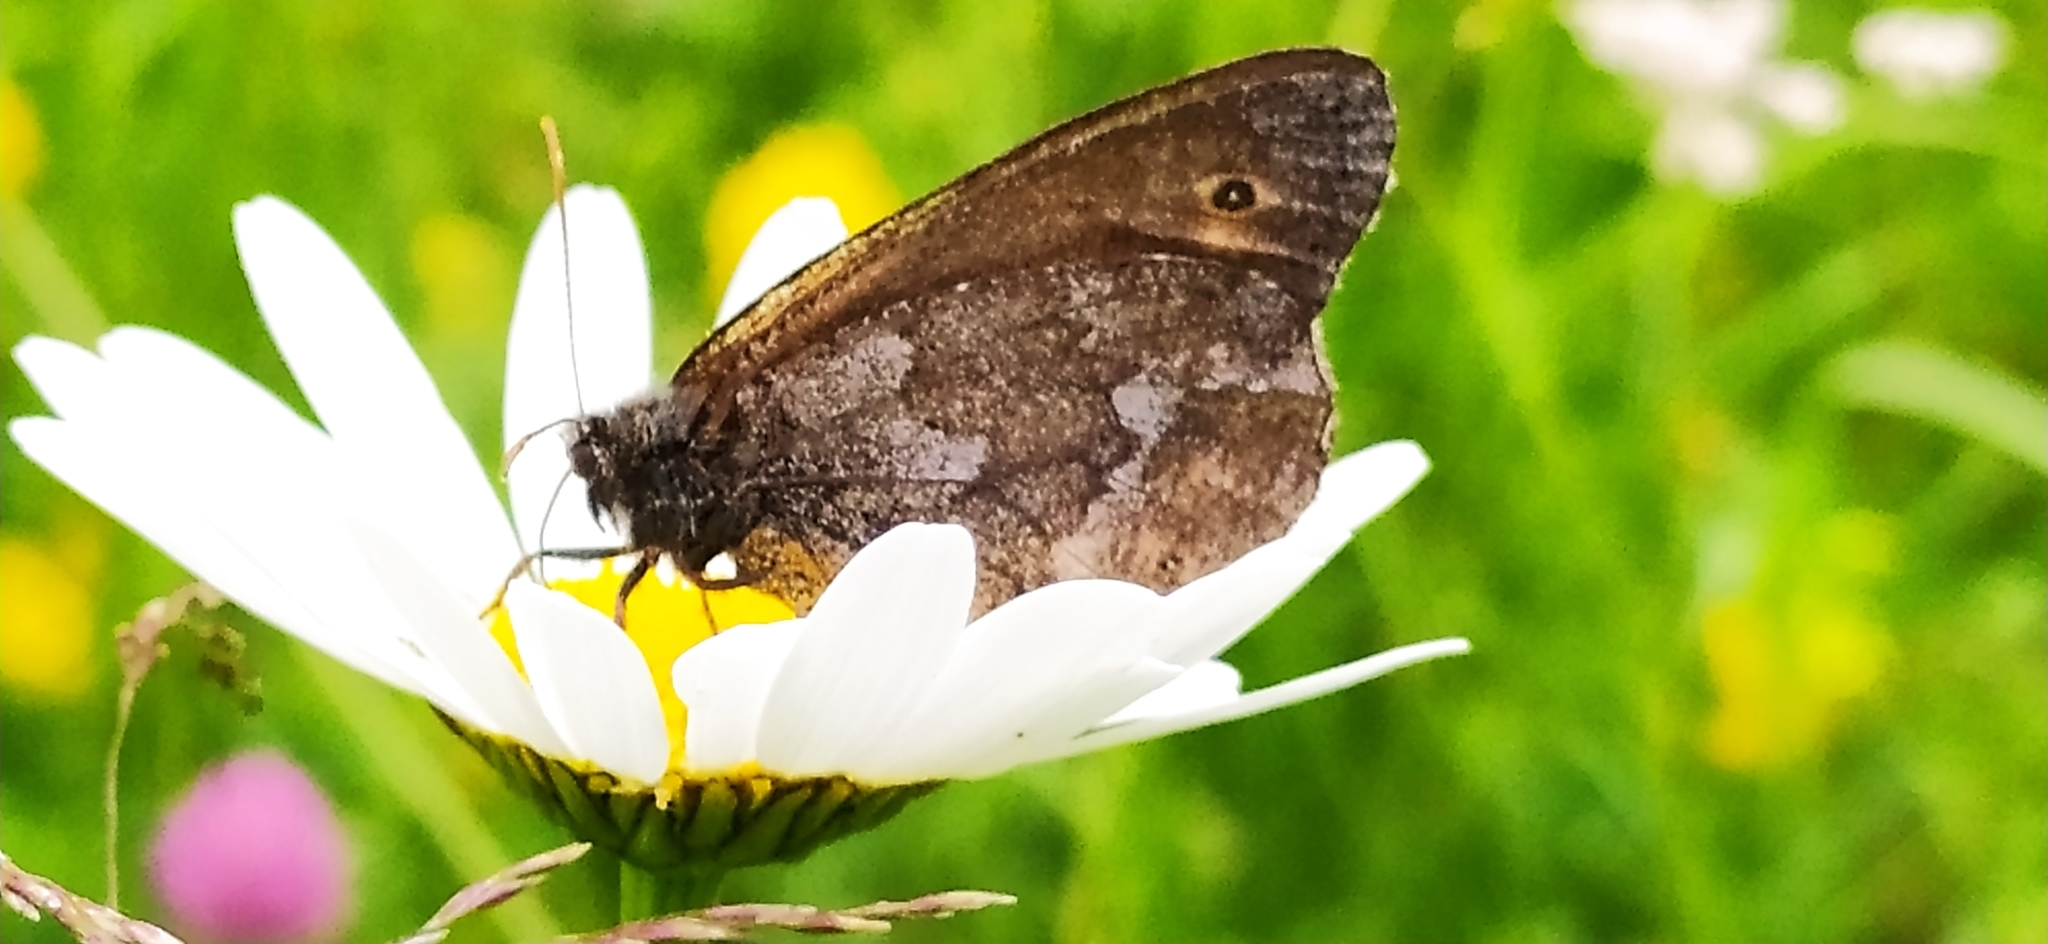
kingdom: Animalia
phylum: Arthropoda
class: Insecta
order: Lepidoptera
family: Nymphalidae
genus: Oeneis
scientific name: Oeneis jutta
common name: Baltic grayling
